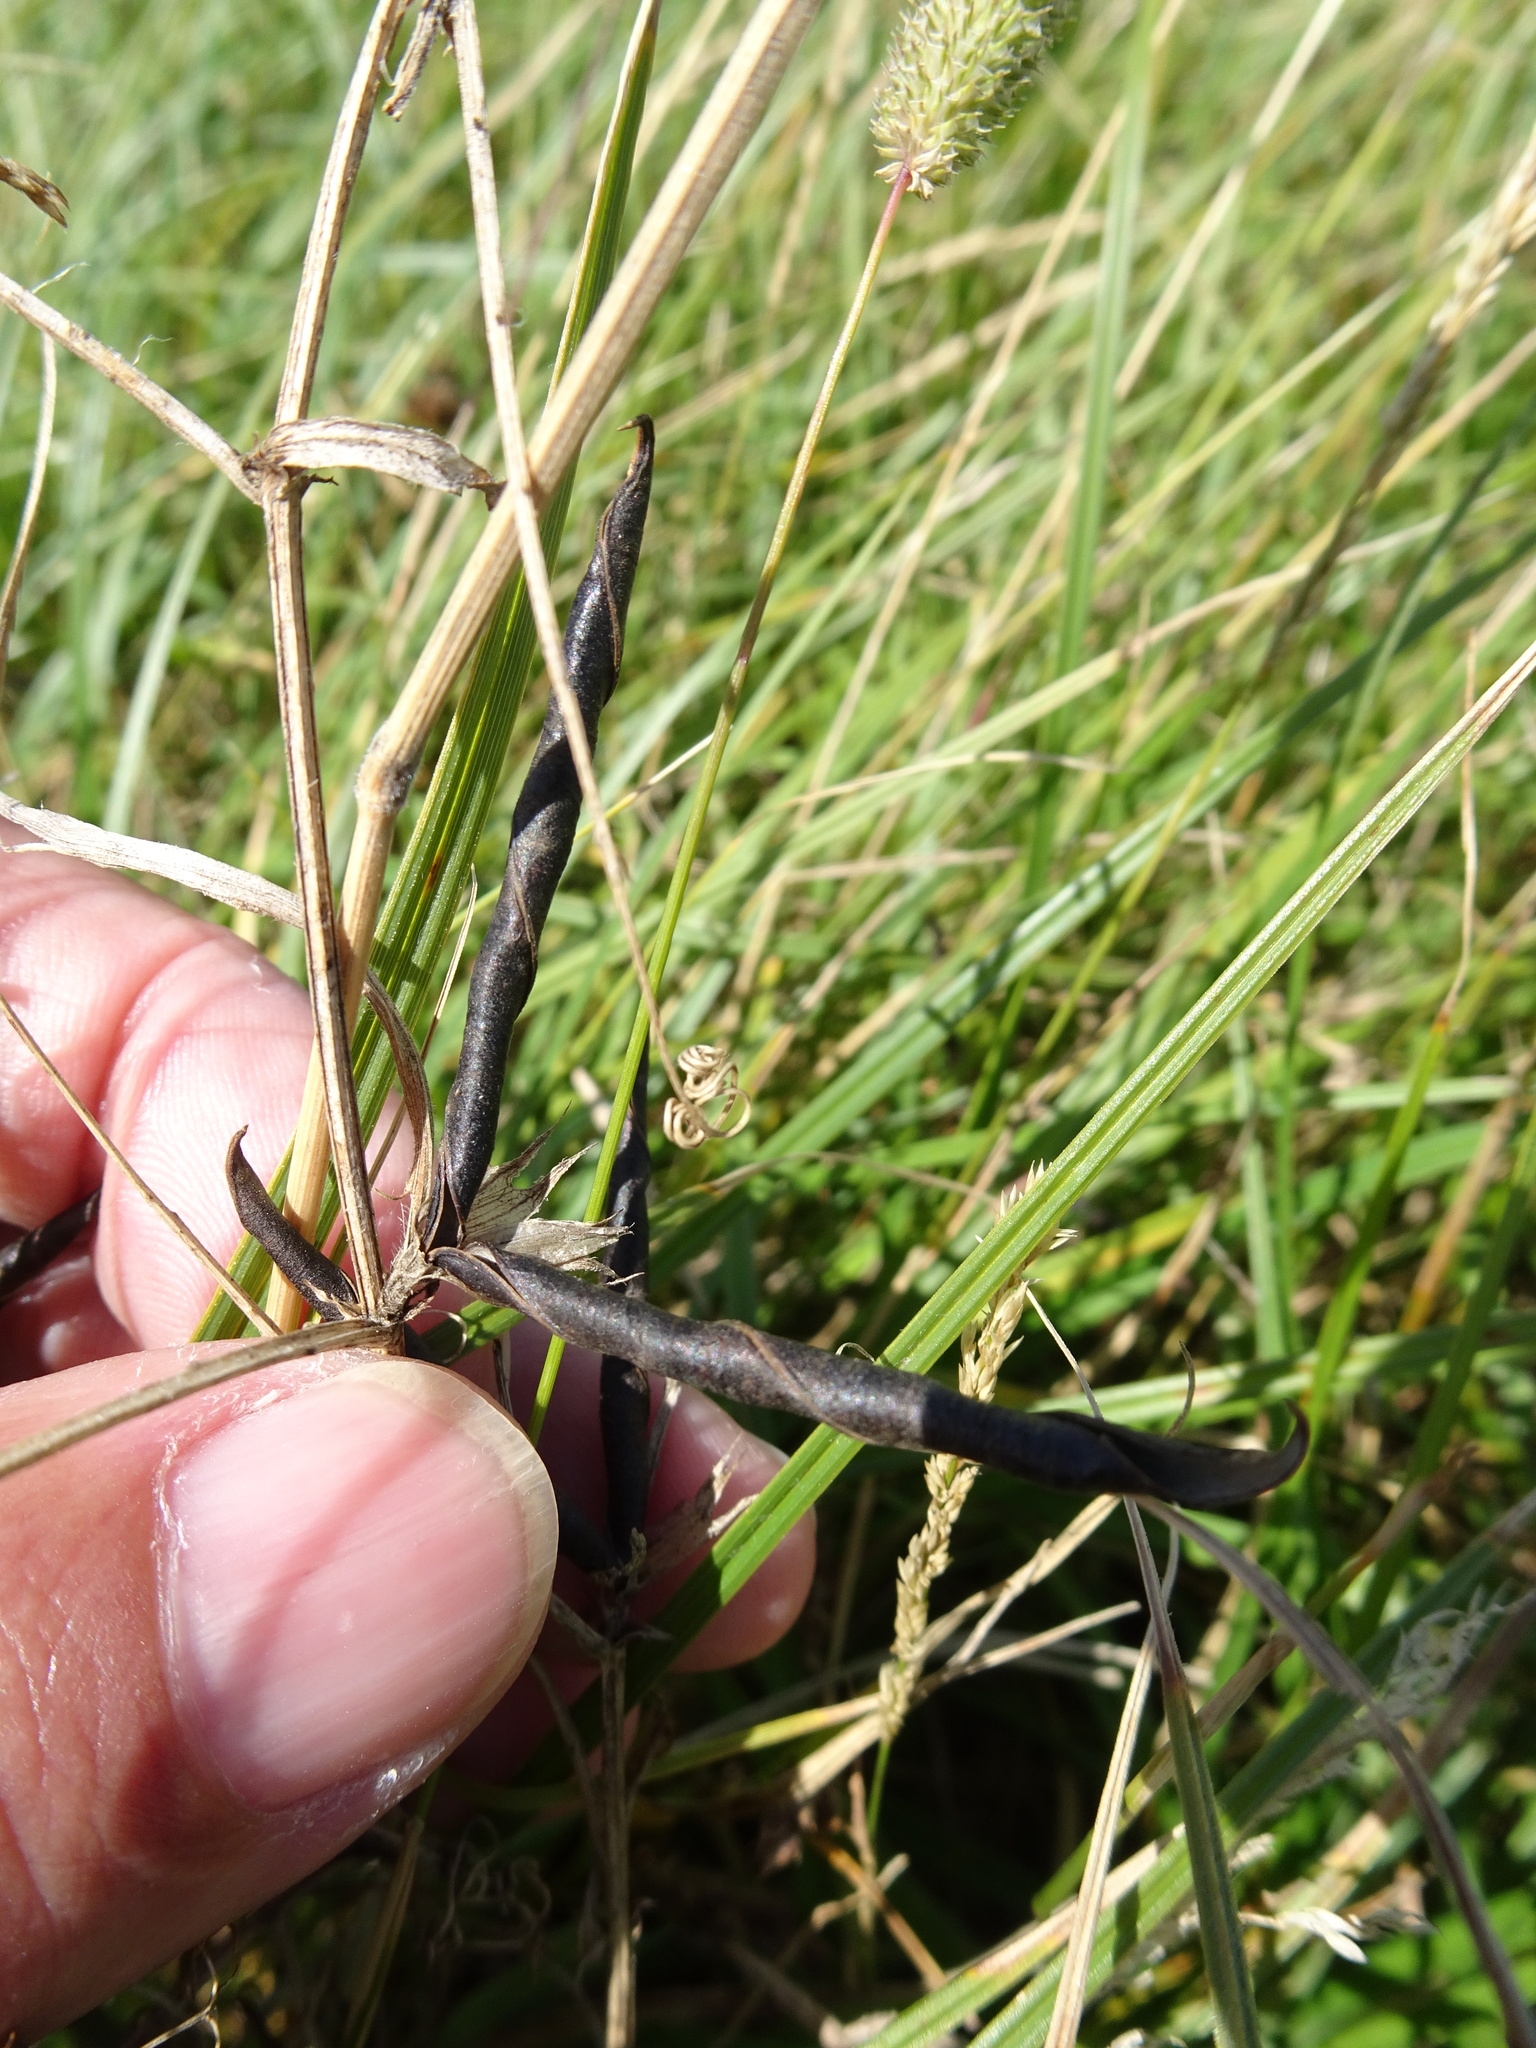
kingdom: Plantae
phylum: Tracheophyta
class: Magnoliopsida
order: Fabales
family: Fabaceae
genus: Lathyrus
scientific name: Lathyrus pratensis
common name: Meadow vetchling
